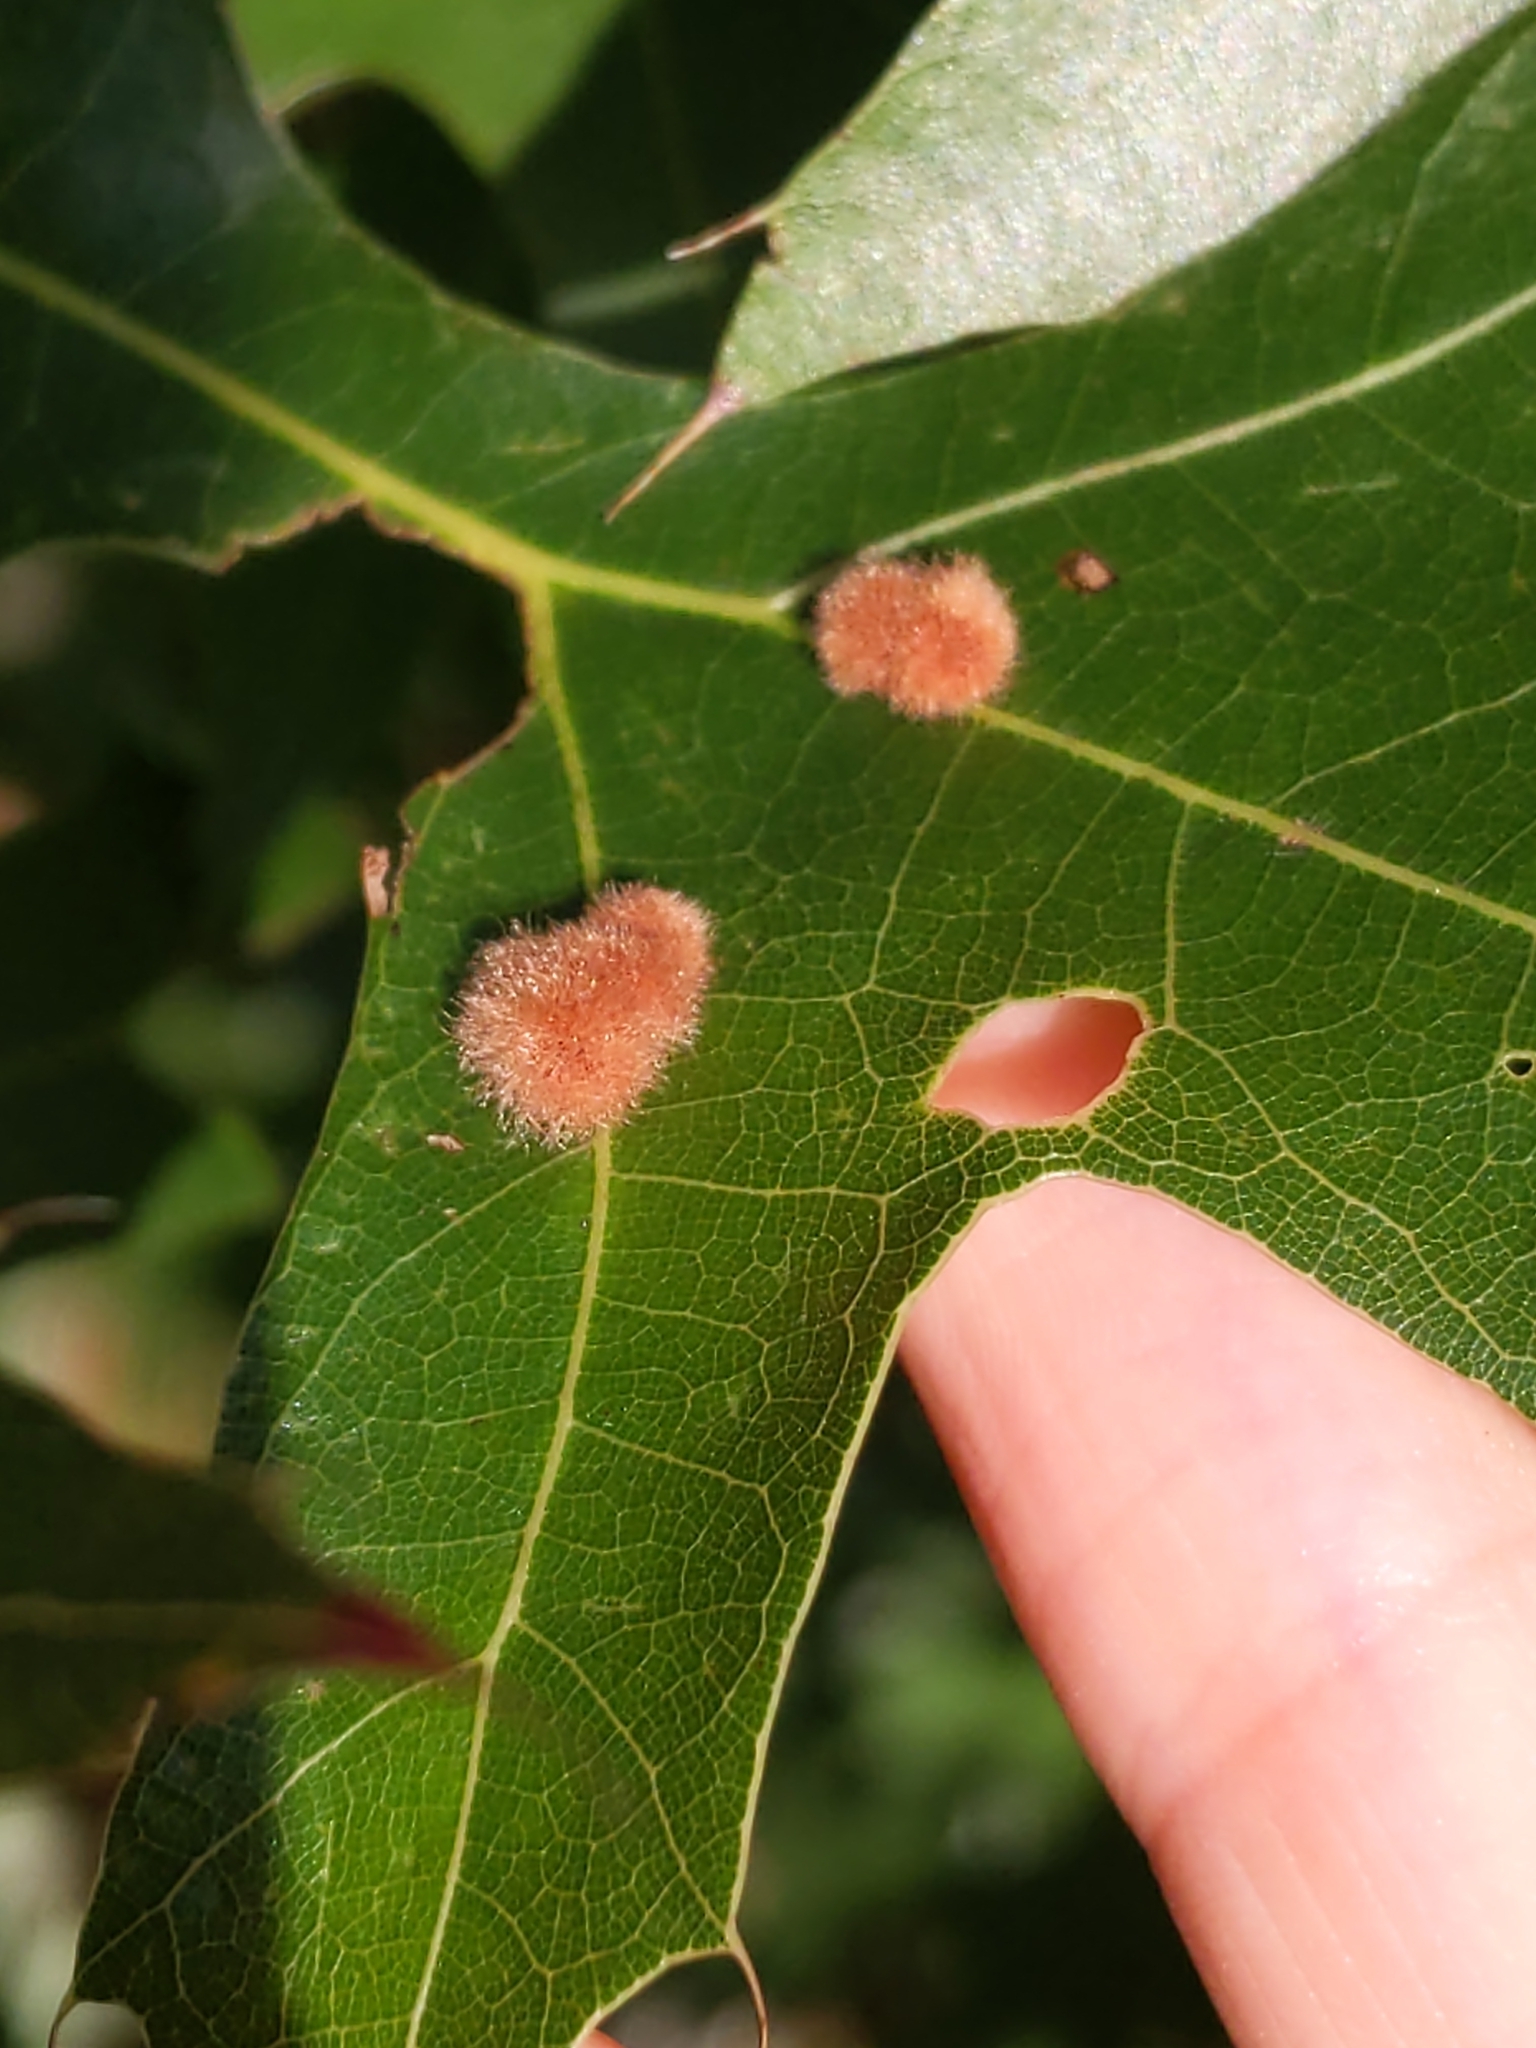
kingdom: Animalia
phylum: Arthropoda
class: Insecta
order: Hymenoptera
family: Cynipidae
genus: Callirhytis
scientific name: Callirhytis
